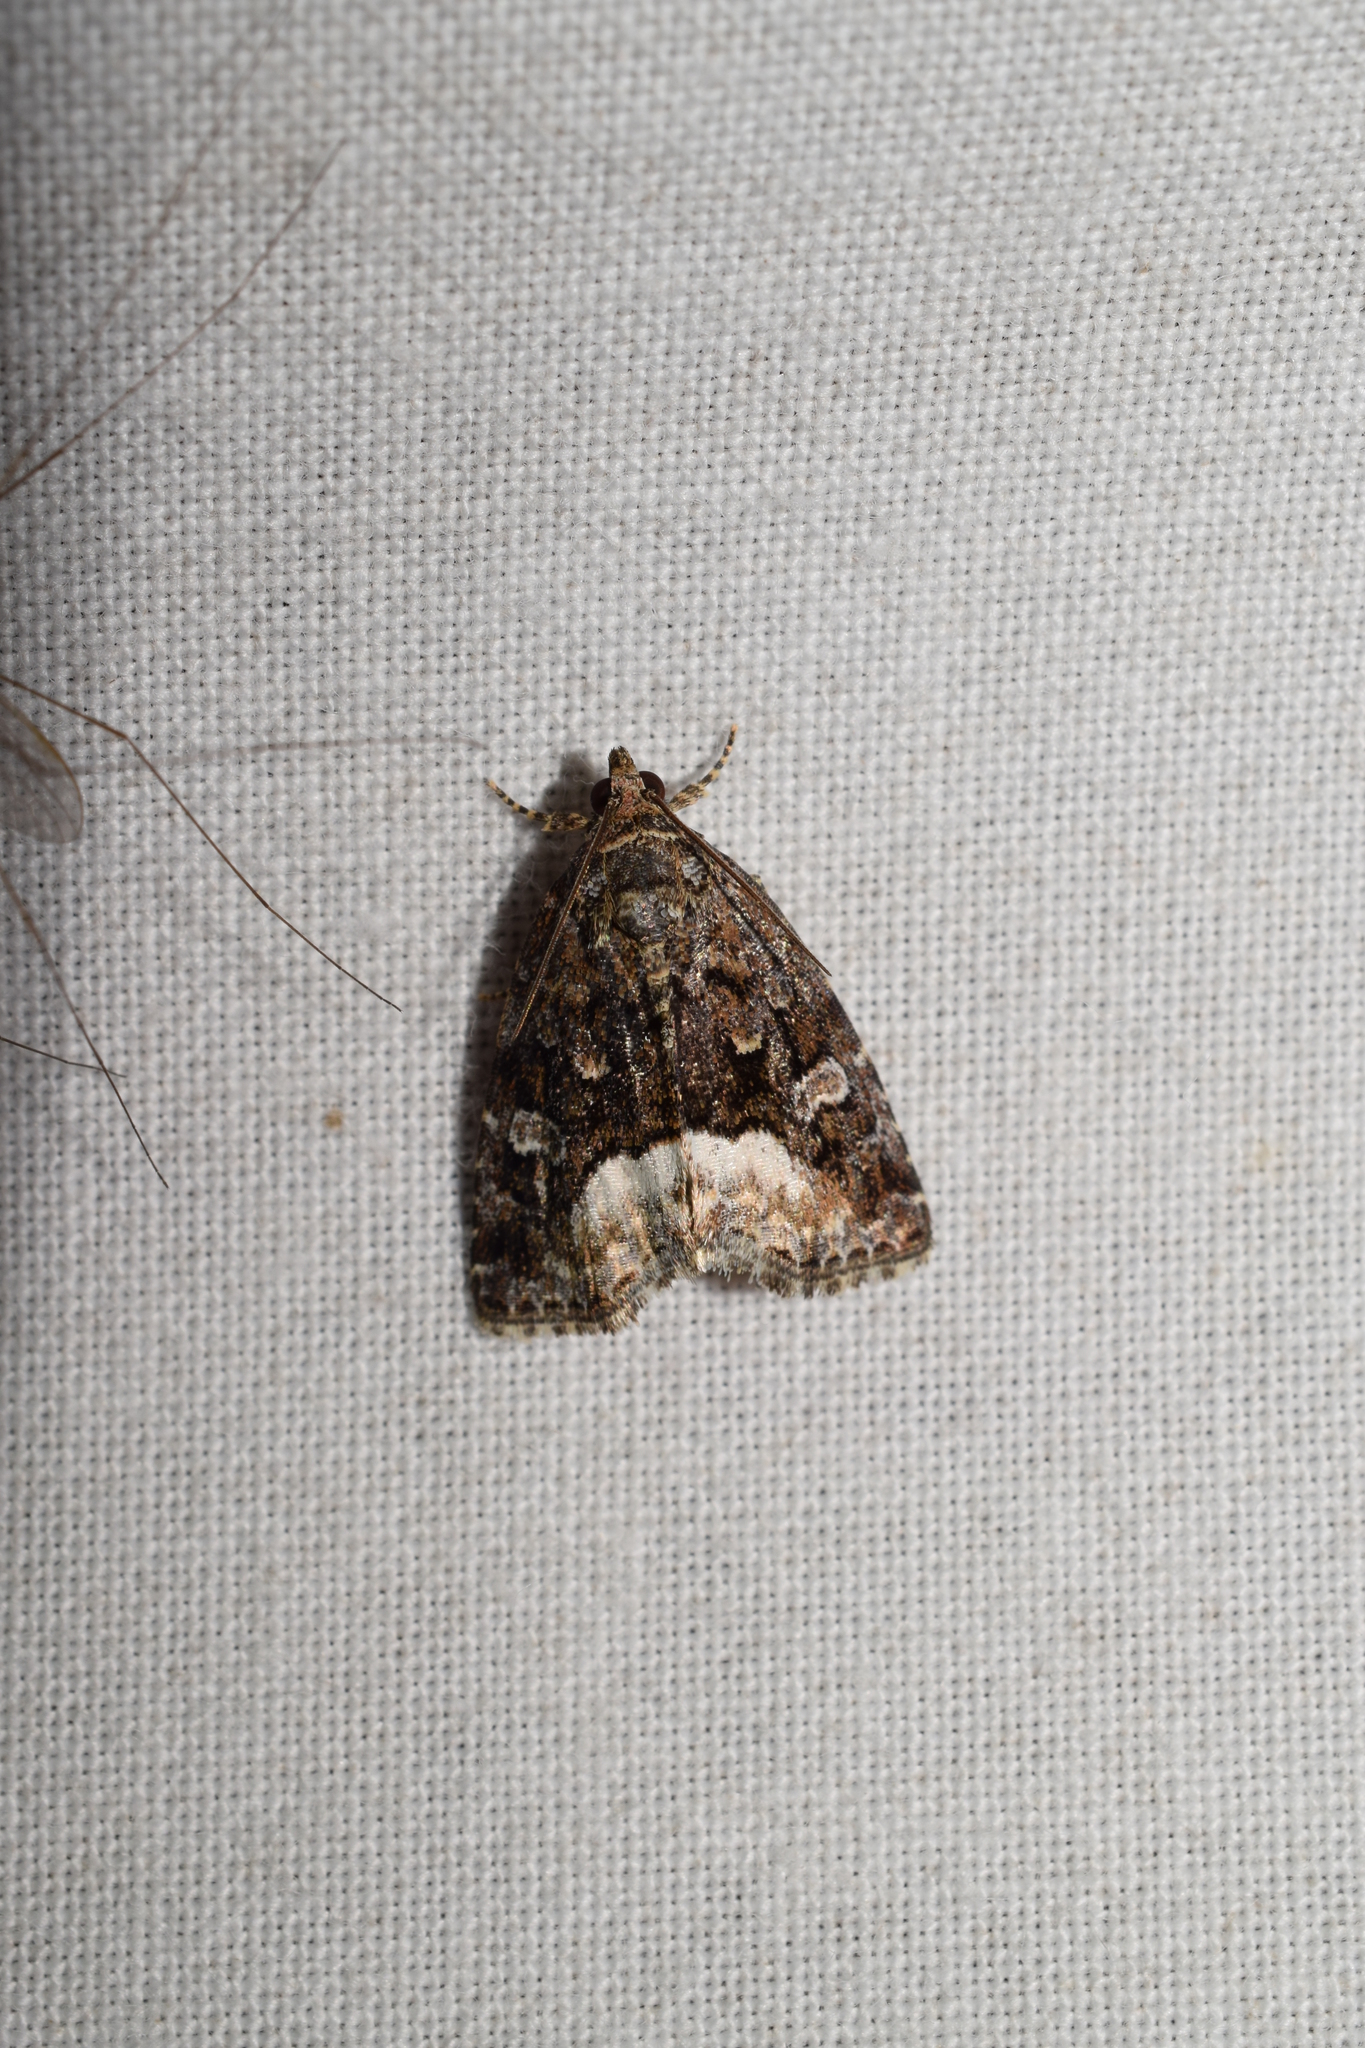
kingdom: Animalia
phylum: Arthropoda
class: Insecta
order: Lepidoptera
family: Noctuidae
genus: Deltote
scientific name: Deltote pygarga
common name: Marbled white spot
